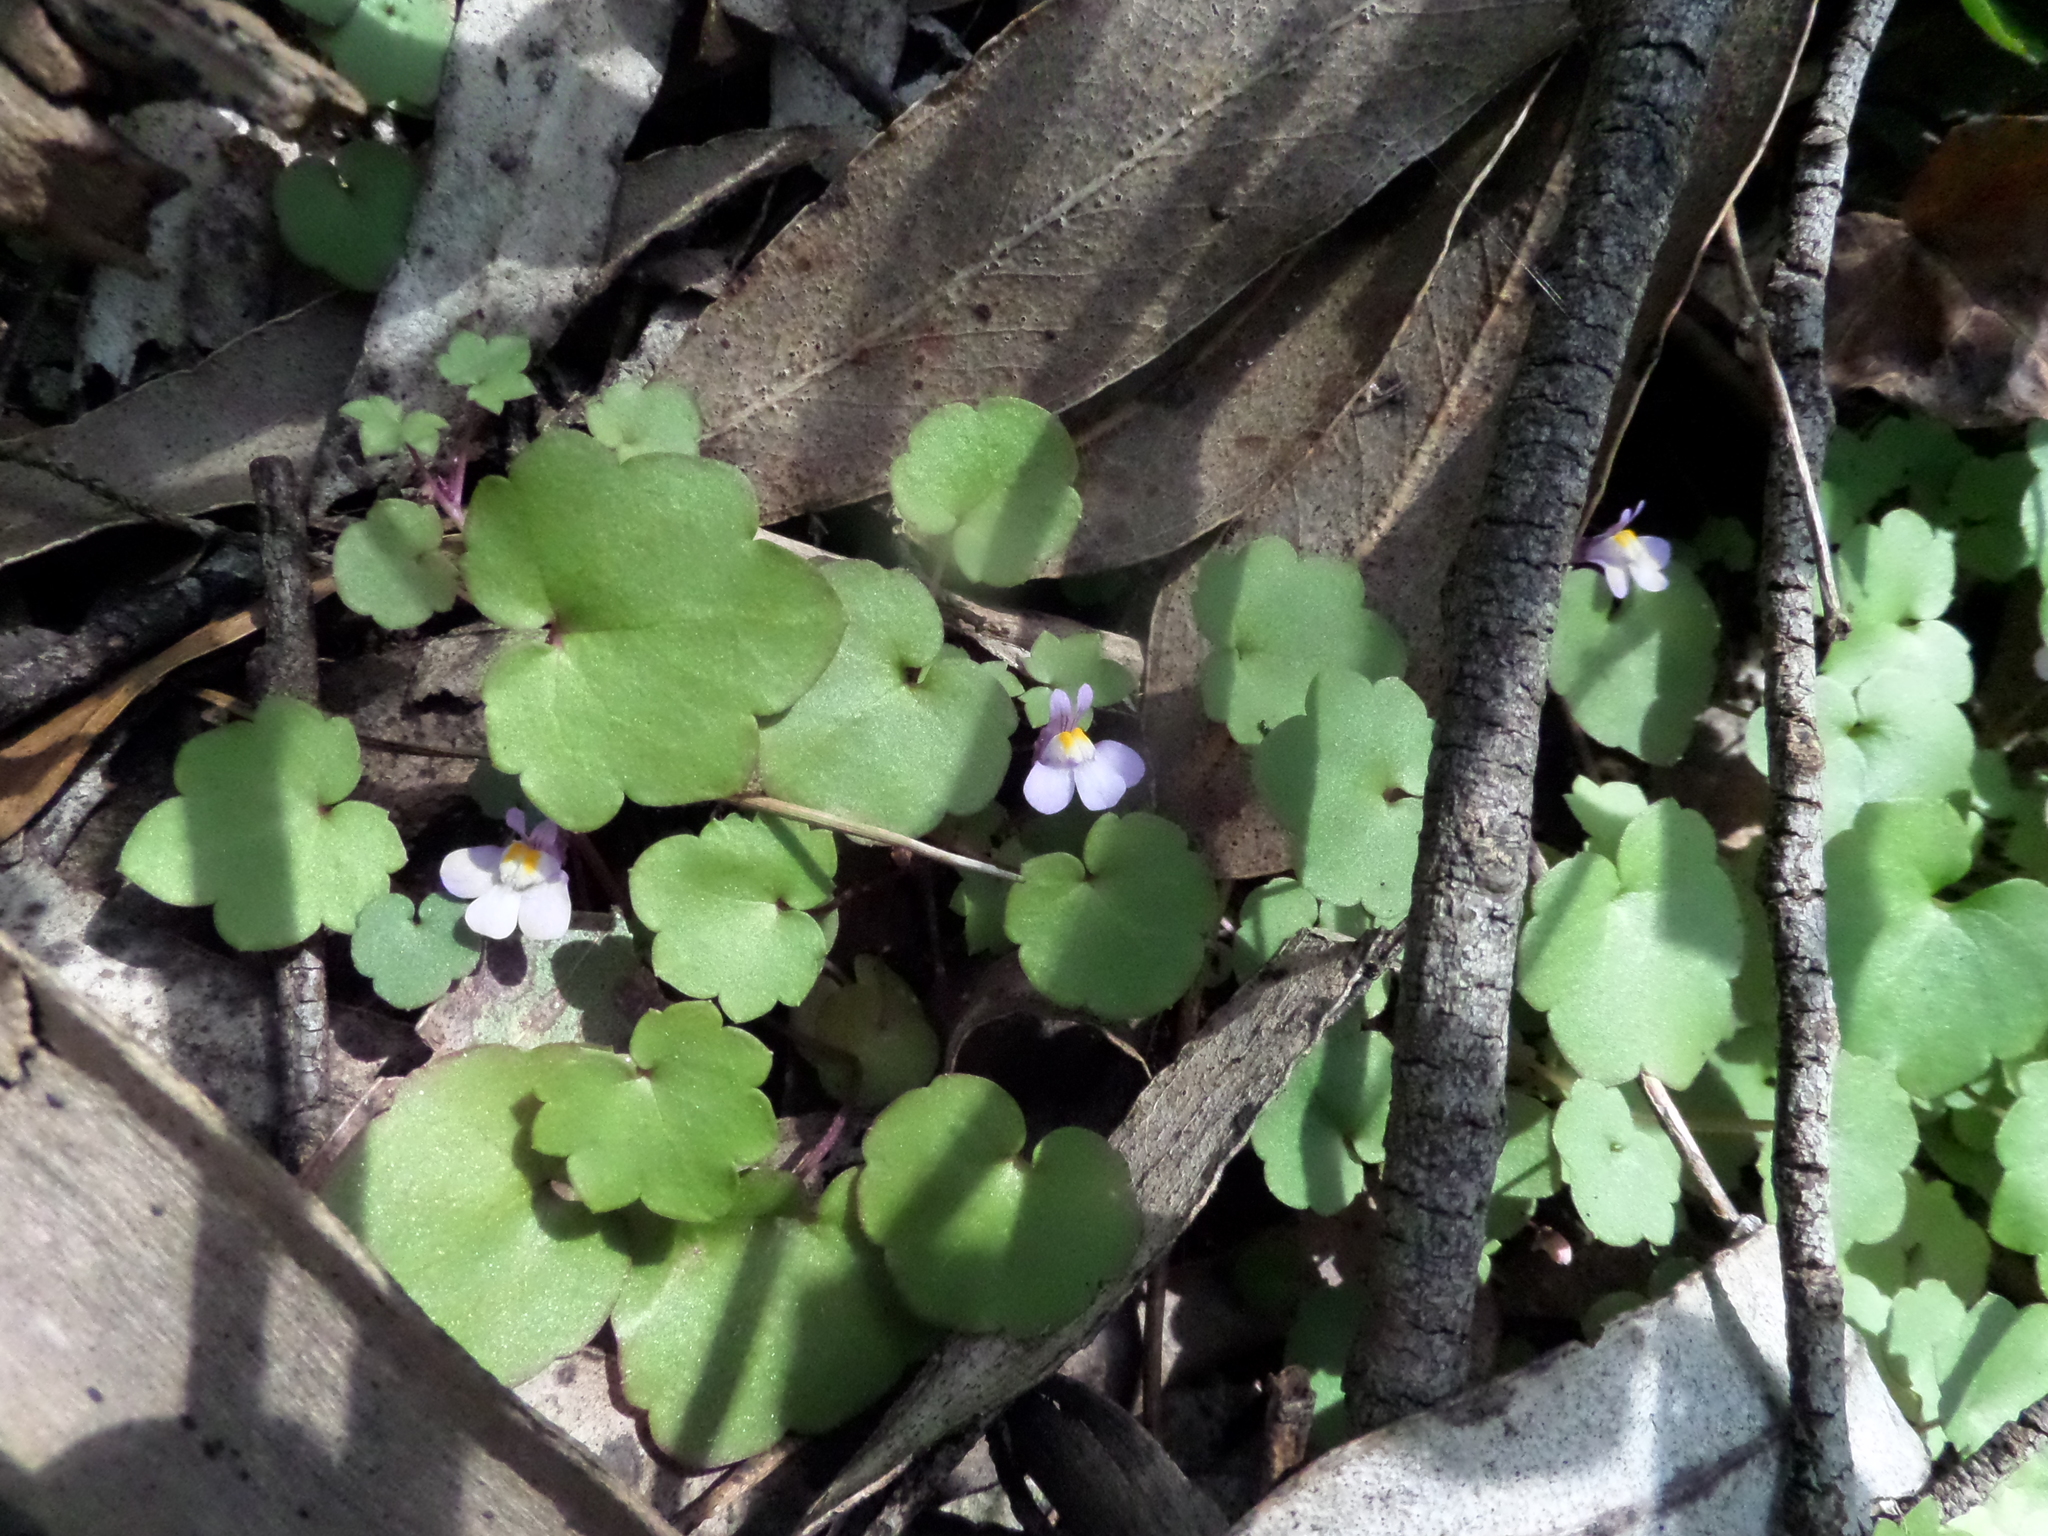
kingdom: Plantae
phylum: Tracheophyta
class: Magnoliopsida
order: Lamiales
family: Plantaginaceae
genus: Cymbalaria
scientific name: Cymbalaria muralis
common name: Ivy-leaved toadflax
